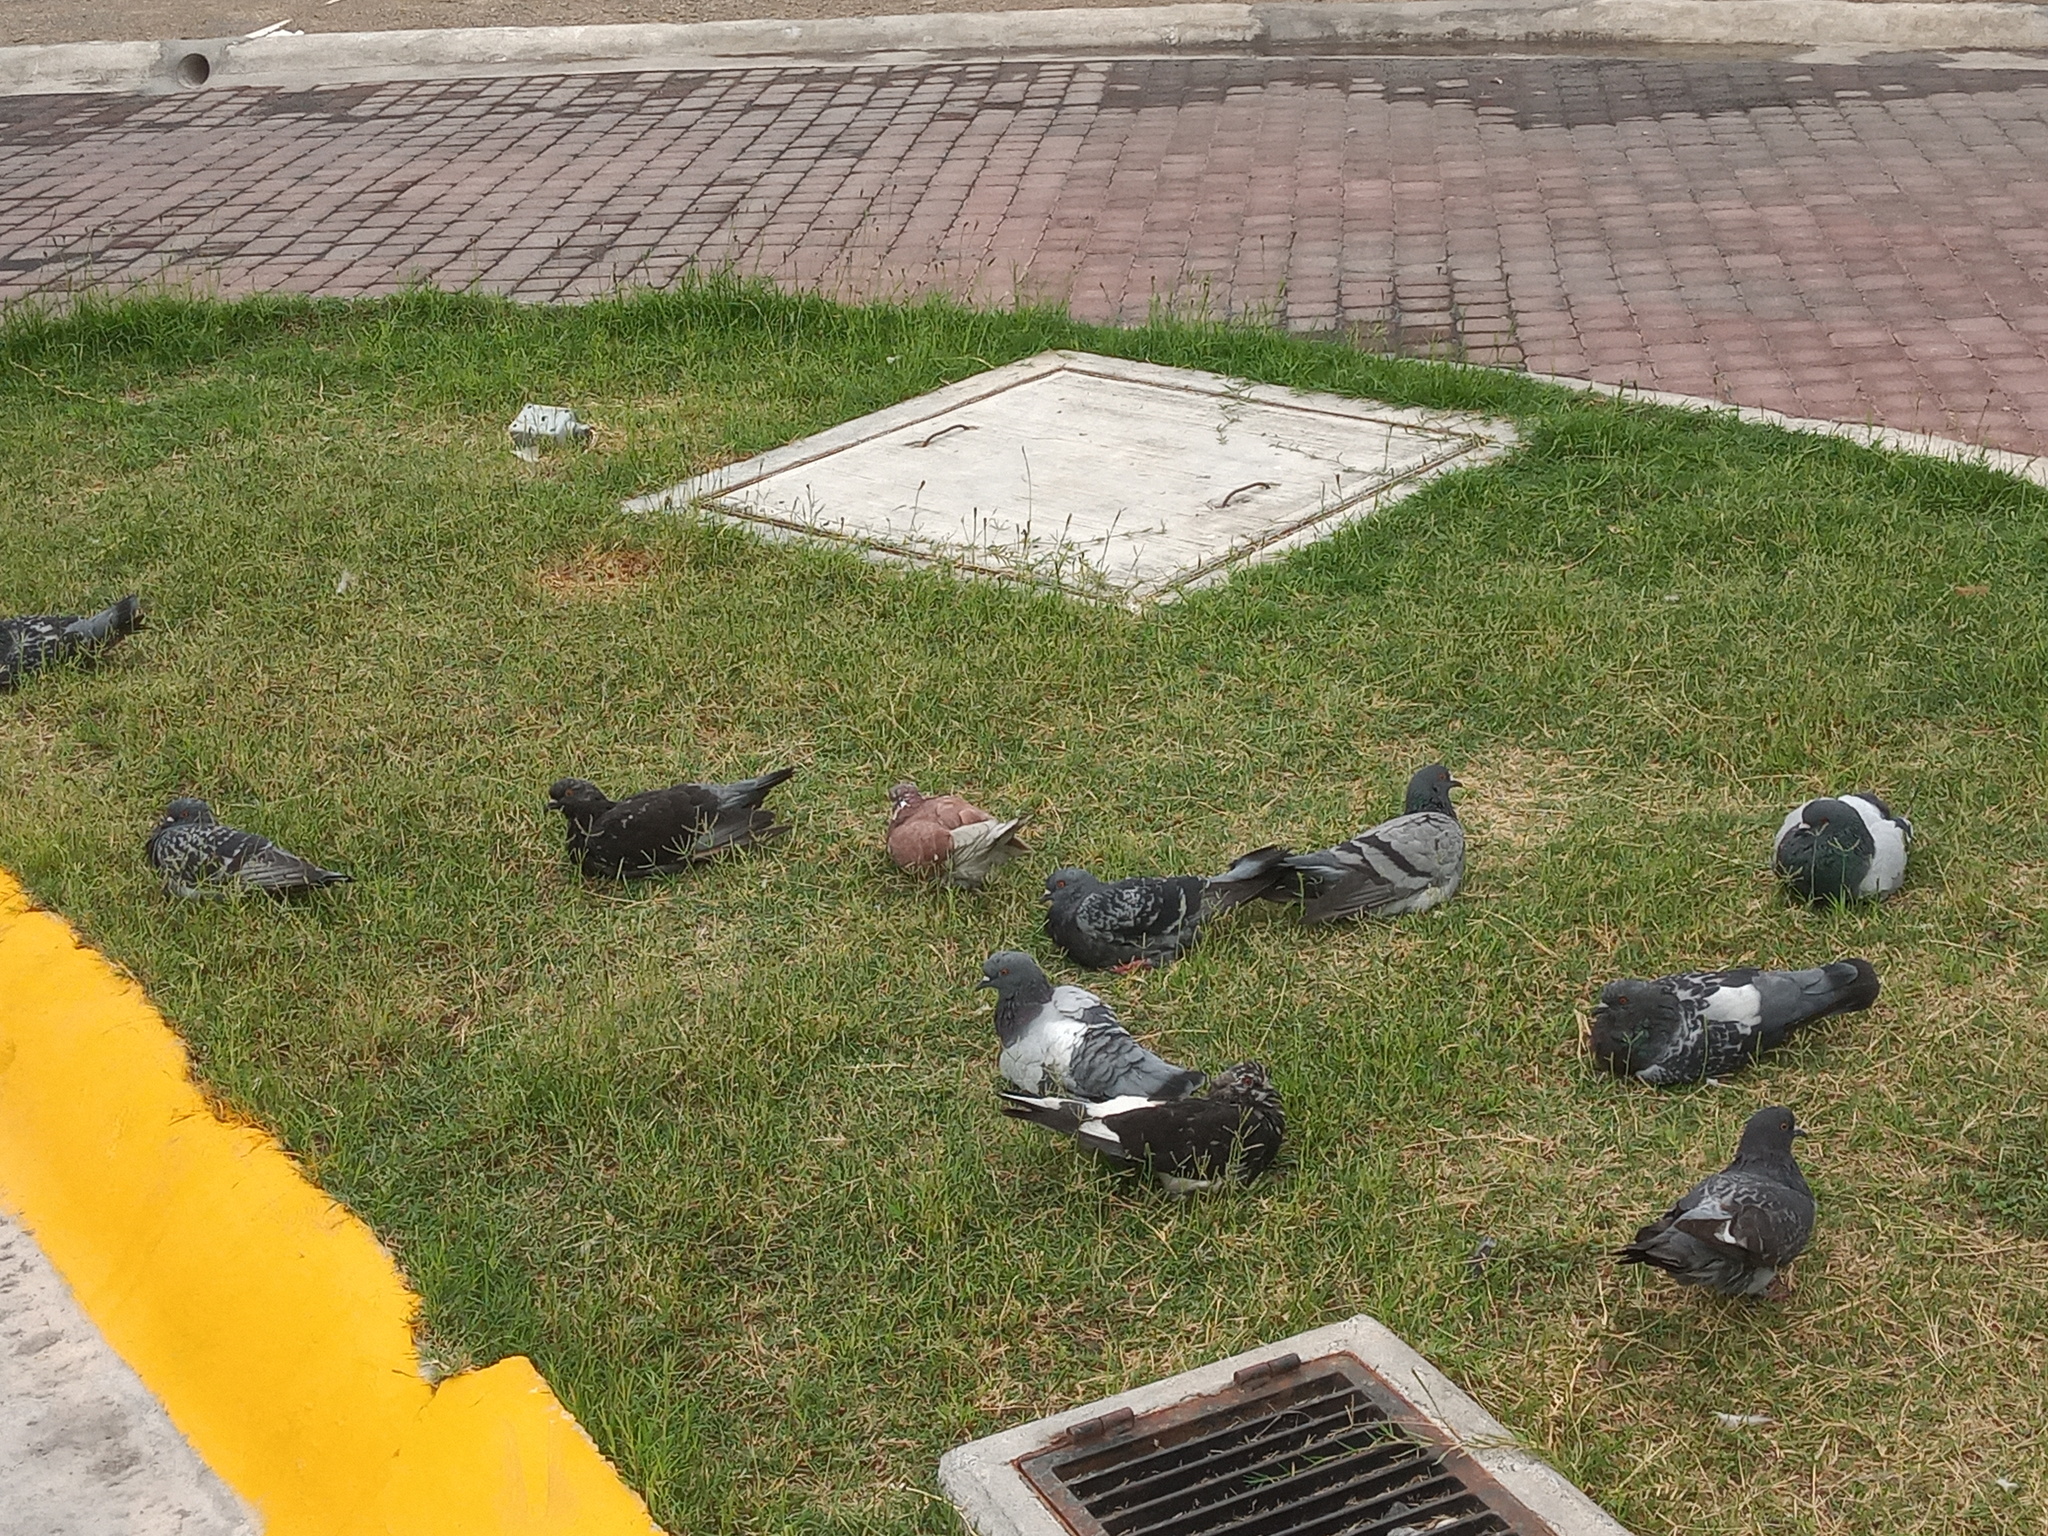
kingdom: Animalia
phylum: Chordata
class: Aves
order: Columbiformes
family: Columbidae
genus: Columba
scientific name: Columba livia
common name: Rock pigeon
